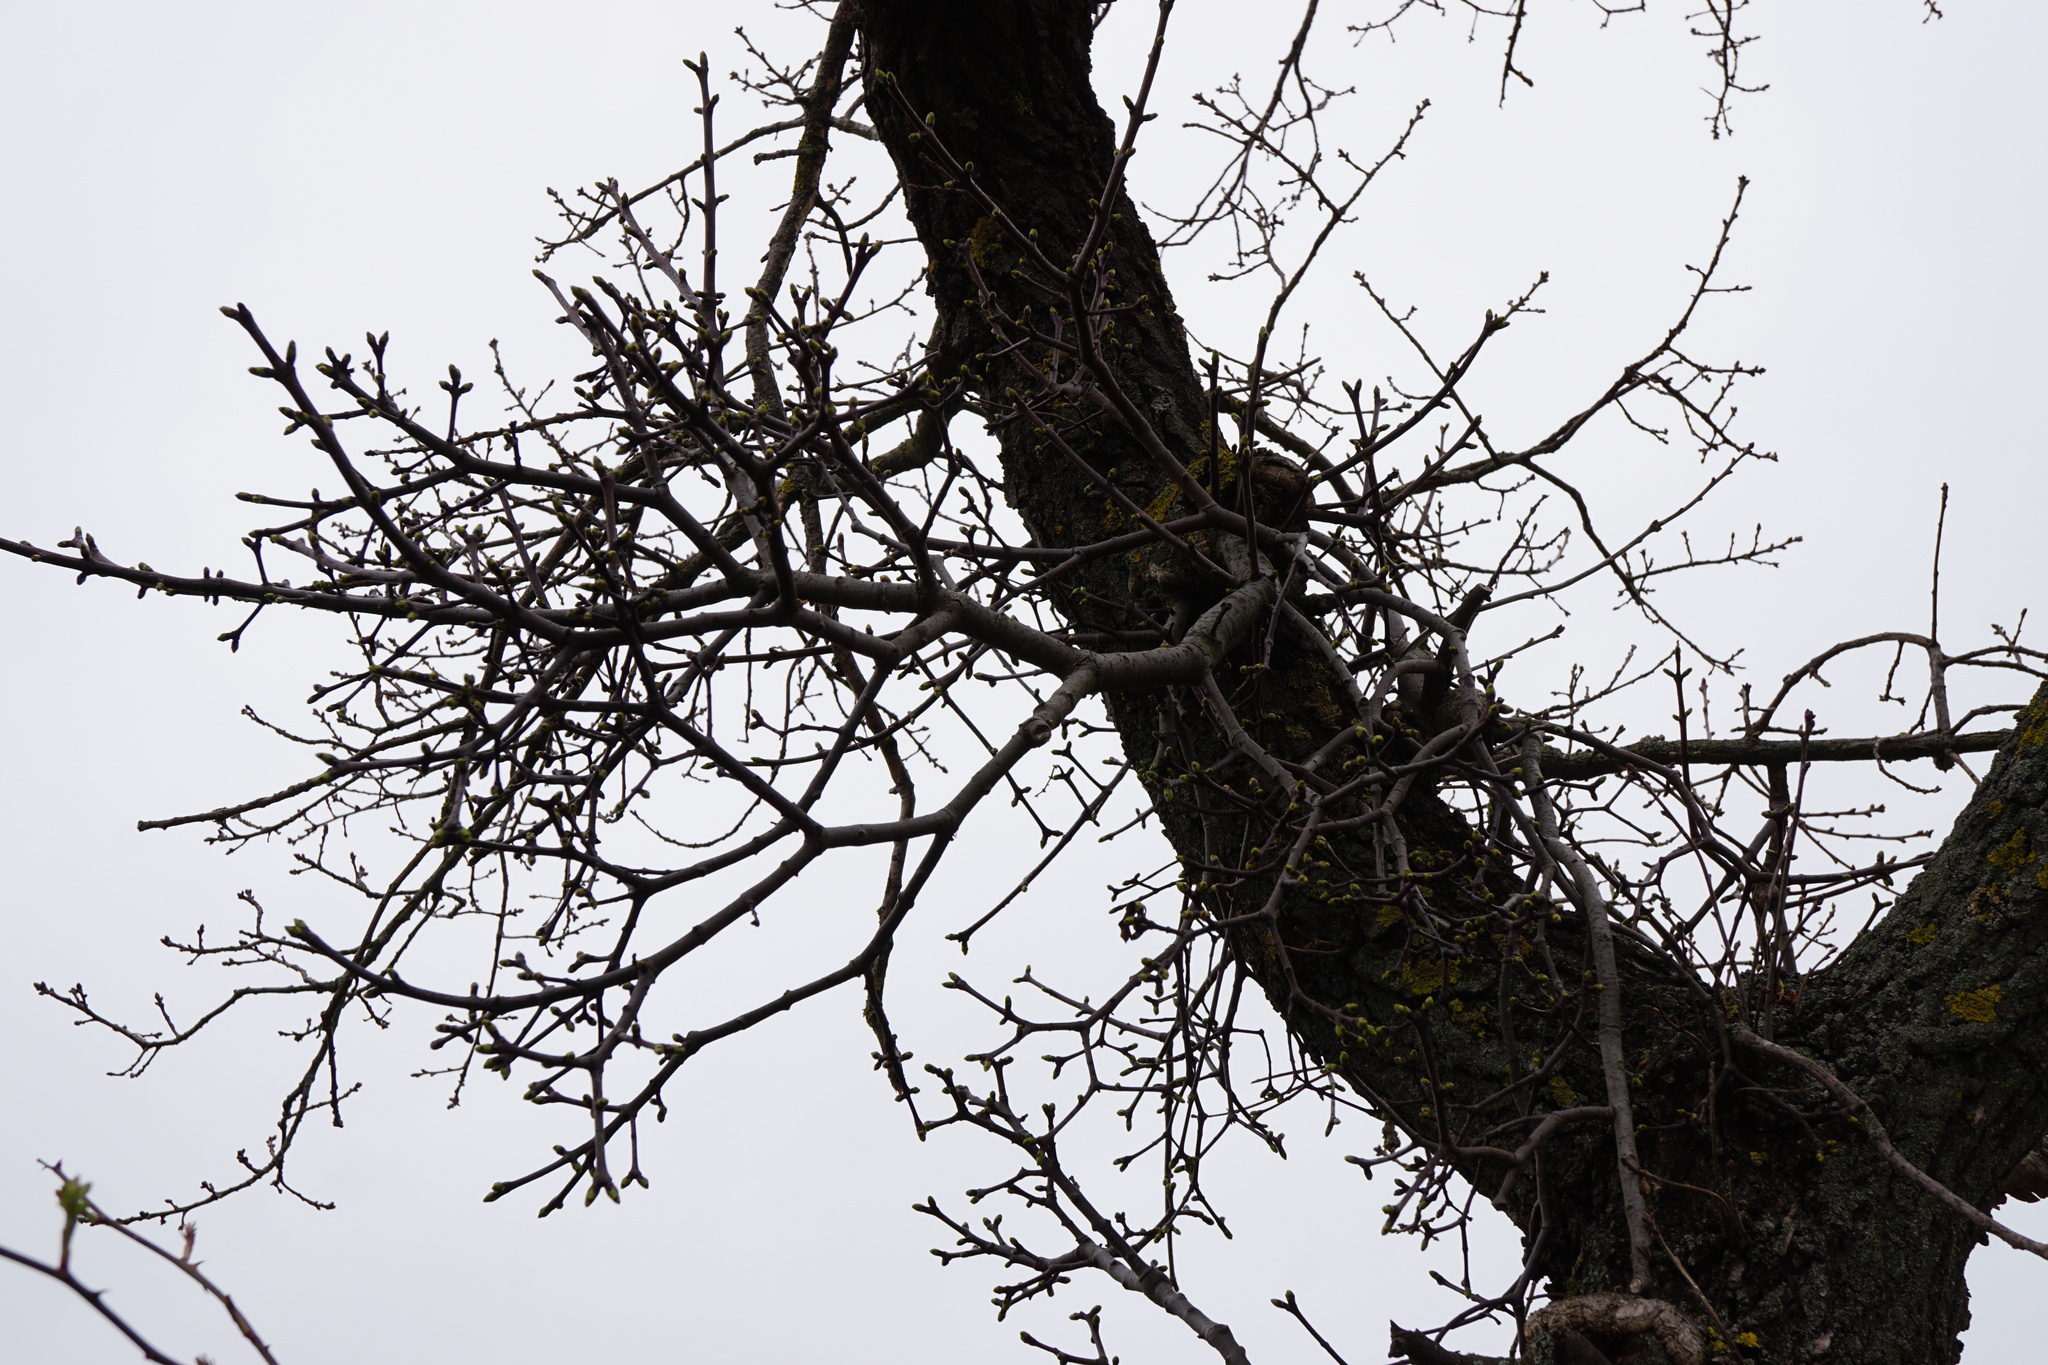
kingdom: Plantae
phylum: Tracheophyta
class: Magnoliopsida
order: Santalales
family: Loranthaceae
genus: Loranthus
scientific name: Loranthus europaeus
